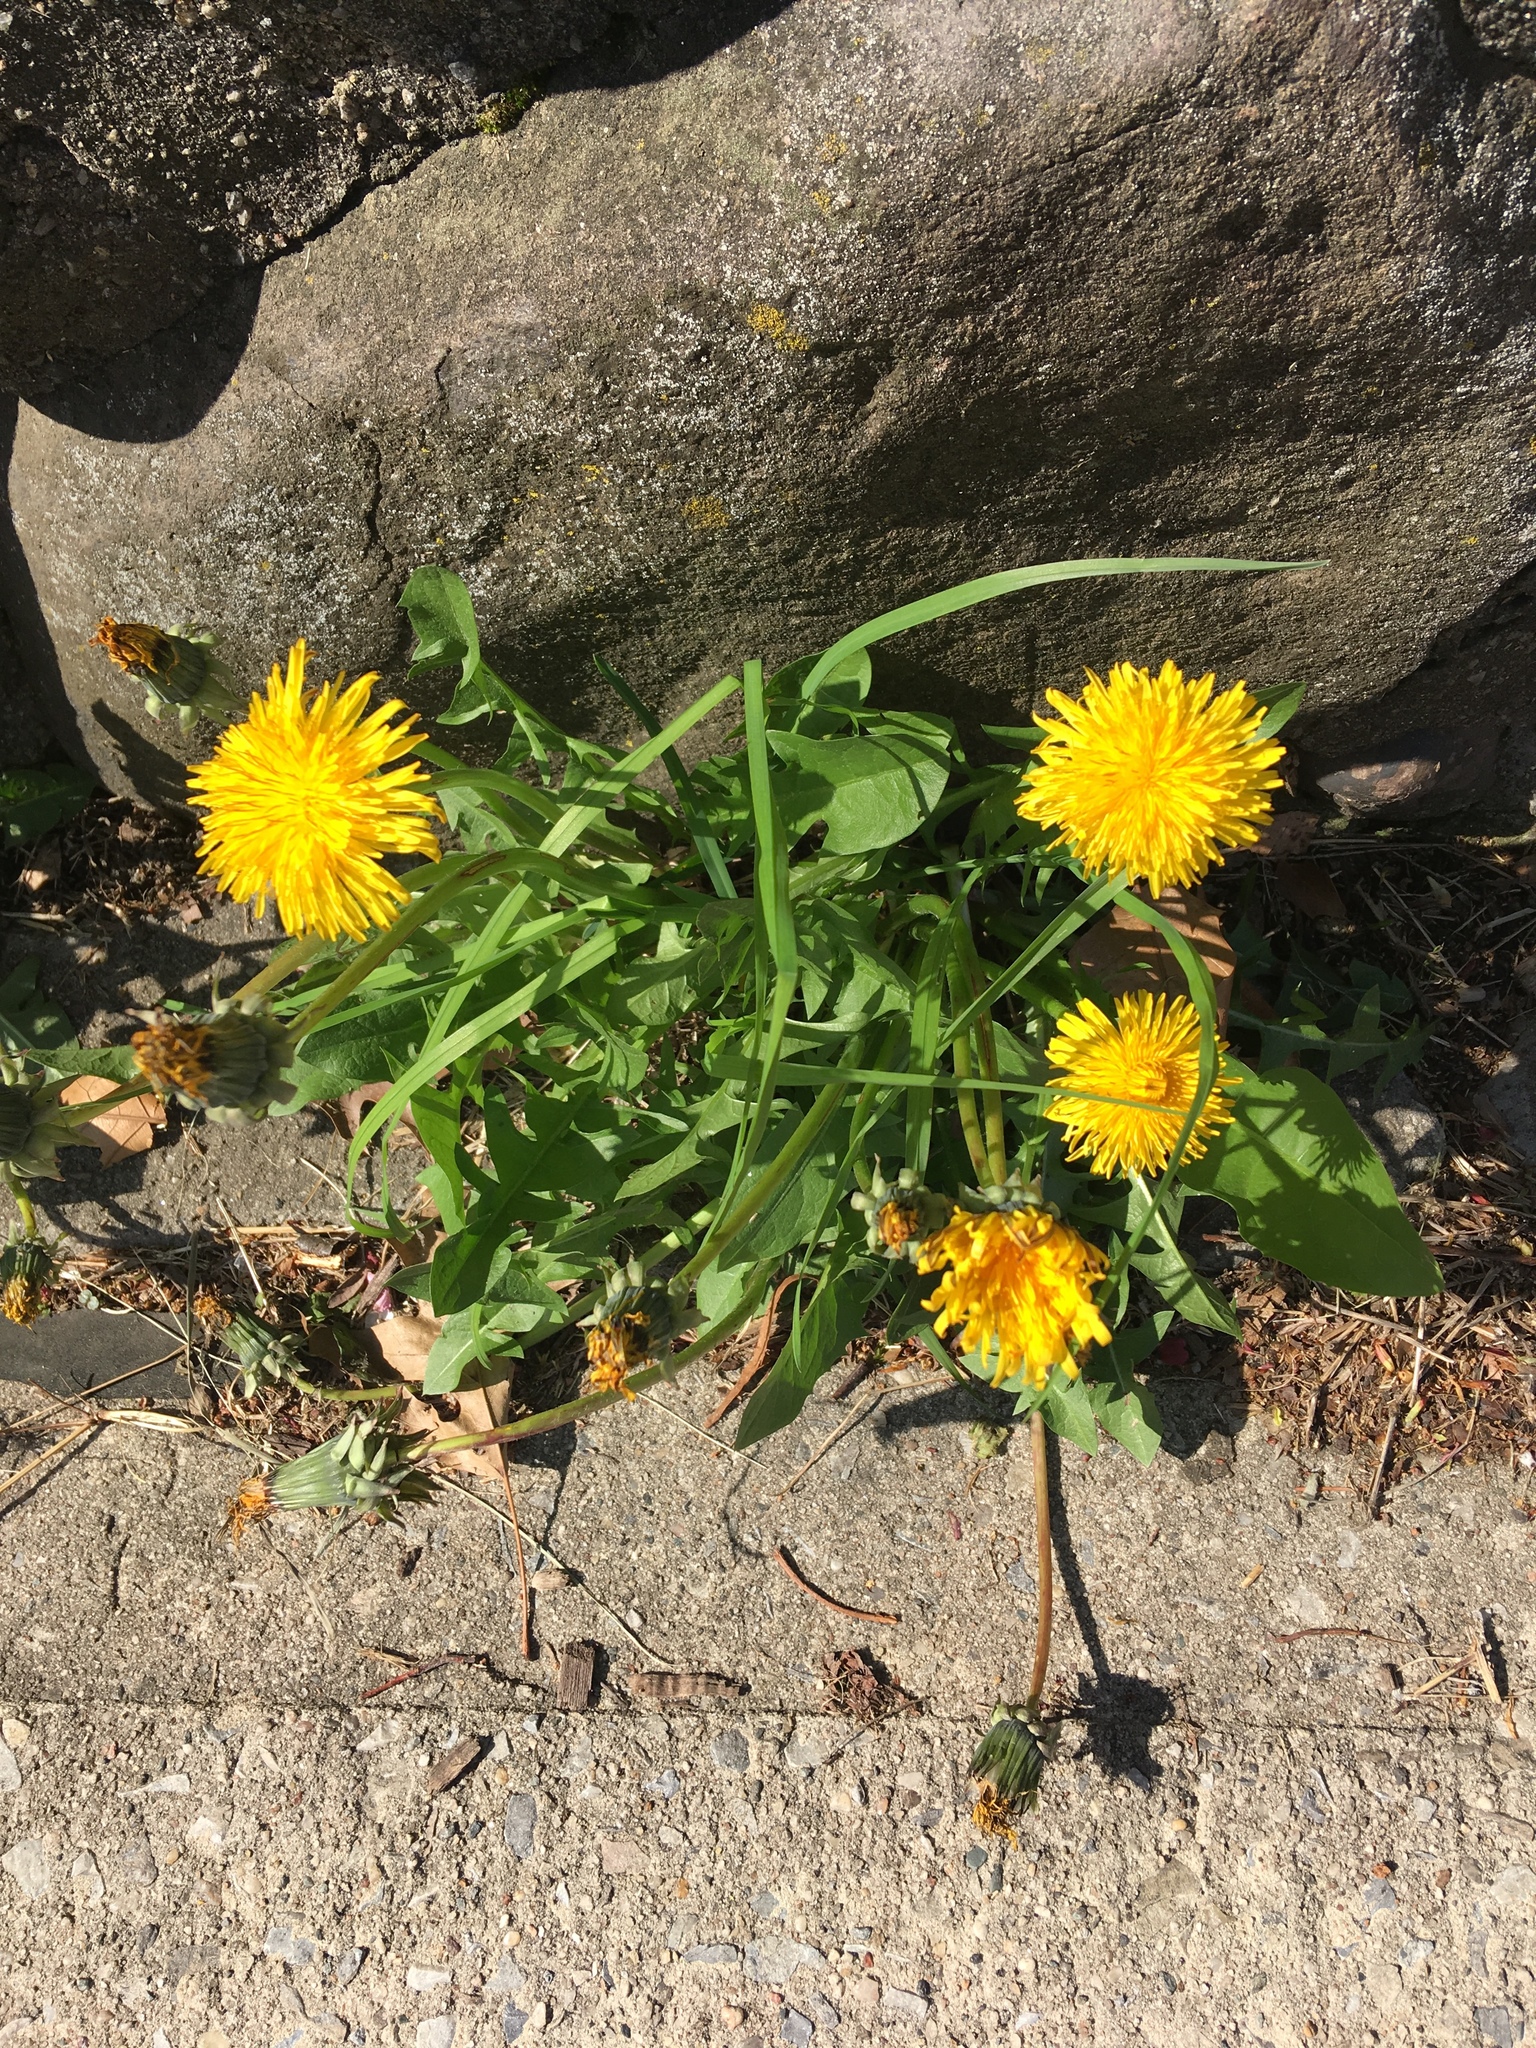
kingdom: Plantae
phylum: Tracheophyta
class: Magnoliopsida
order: Asterales
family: Asteraceae
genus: Taraxacum
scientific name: Taraxacum officinale
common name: Common dandelion
